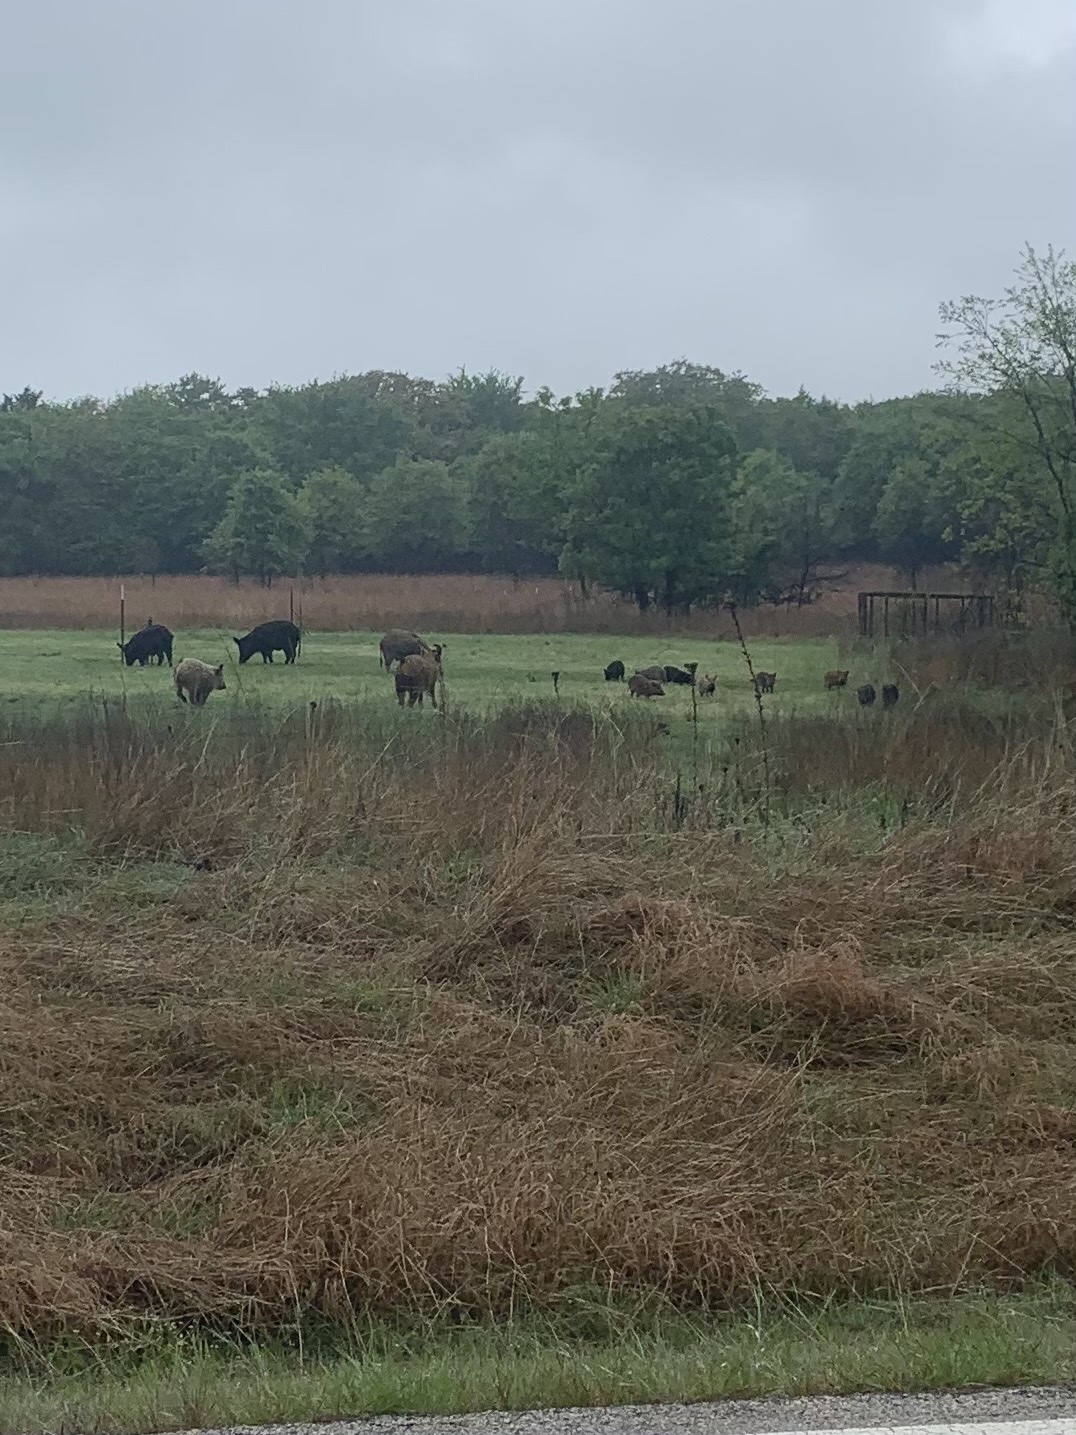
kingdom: Animalia
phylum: Chordata
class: Mammalia
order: Artiodactyla
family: Suidae
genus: Sus
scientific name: Sus scrofa
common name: Wild boar
